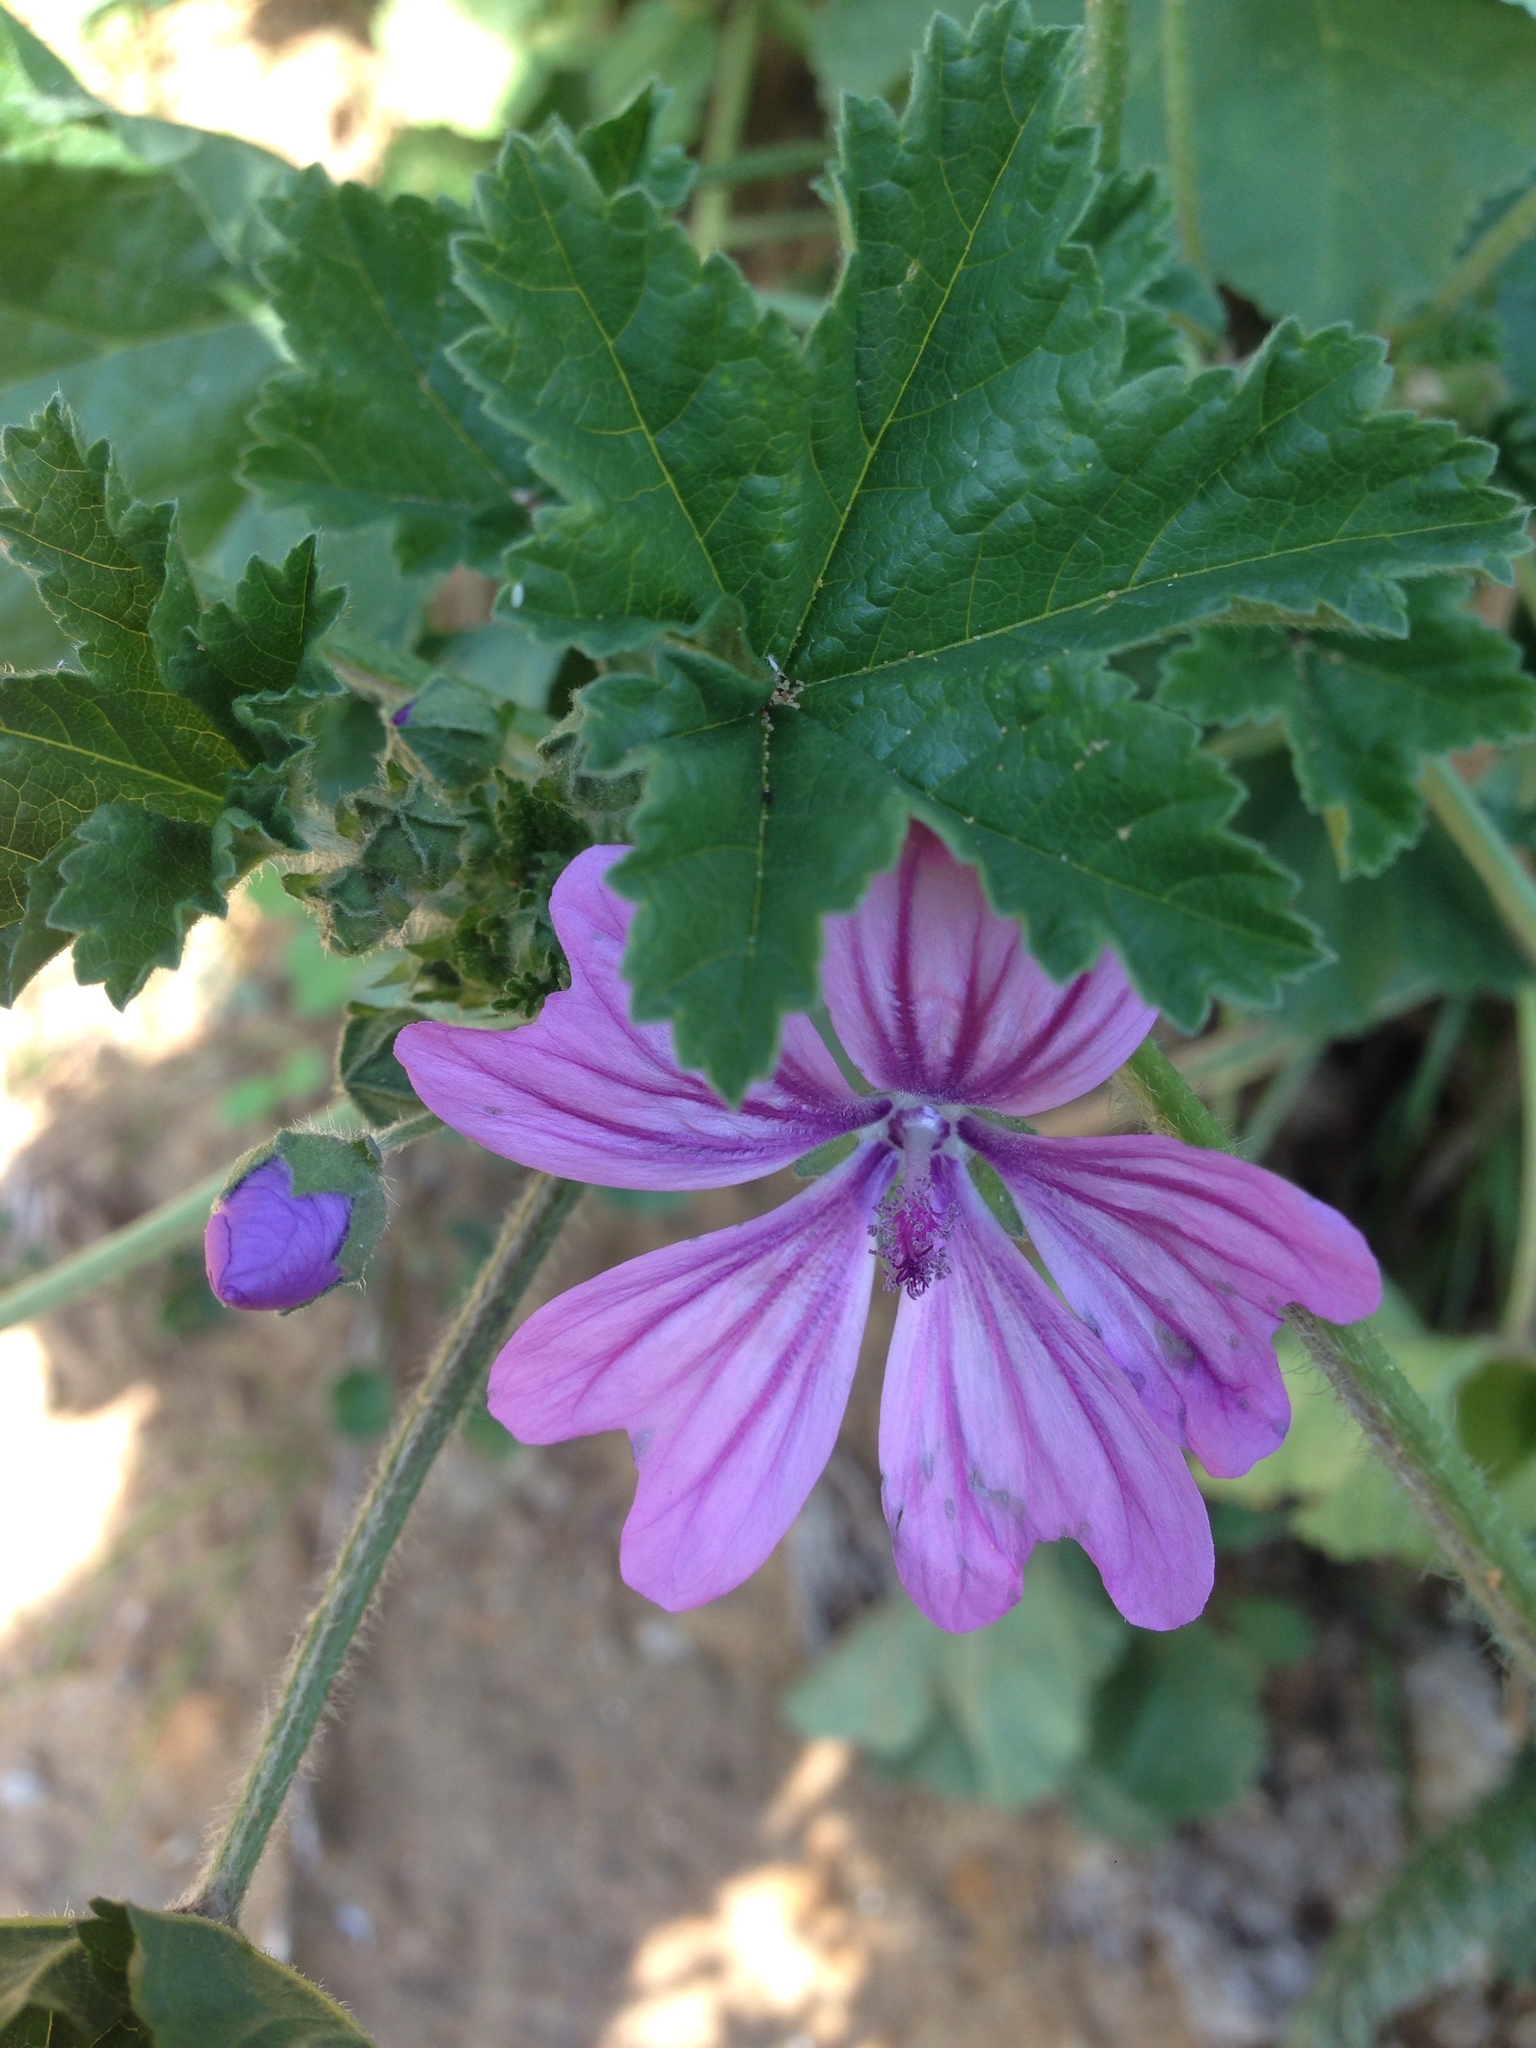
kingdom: Plantae
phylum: Tracheophyta
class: Magnoliopsida
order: Malvales
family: Malvaceae
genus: Malva
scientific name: Malva sylvestris
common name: Common mallow
